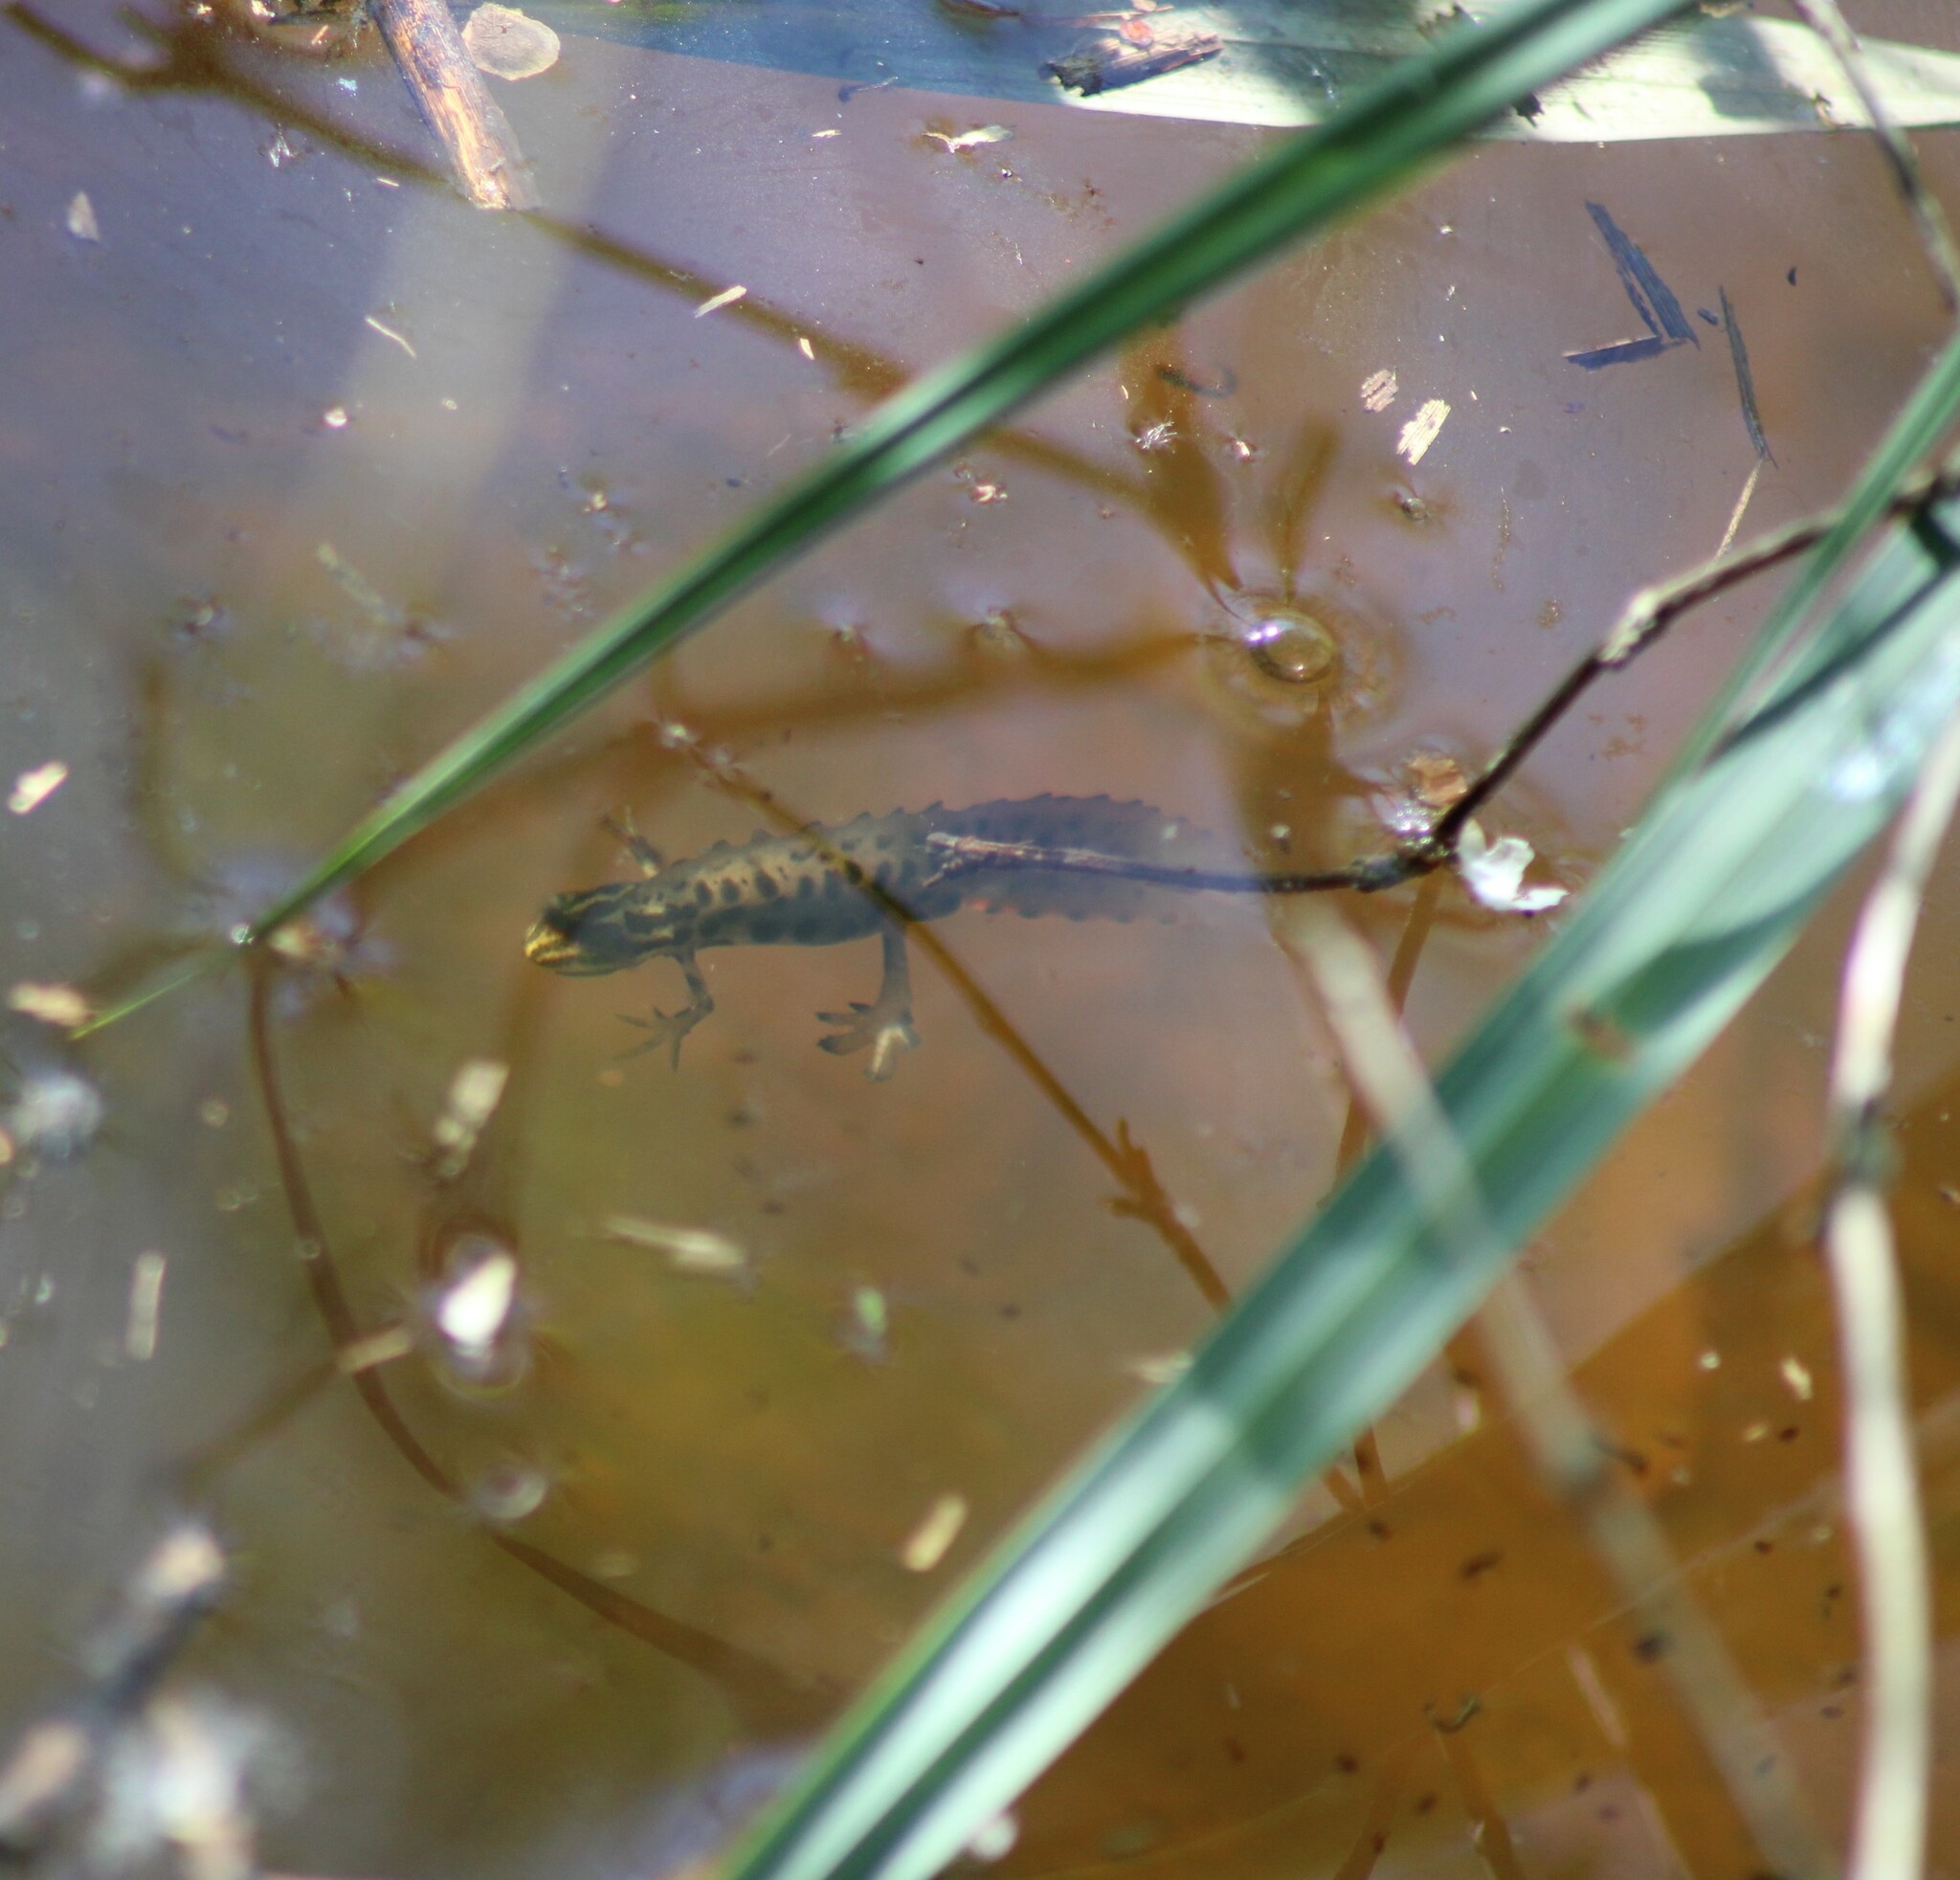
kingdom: Animalia
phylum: Chordata
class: Amphibia
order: Caudata
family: Salamandridae
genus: Lissotriton
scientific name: Lissotriton vulgaris
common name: Smooth newt
